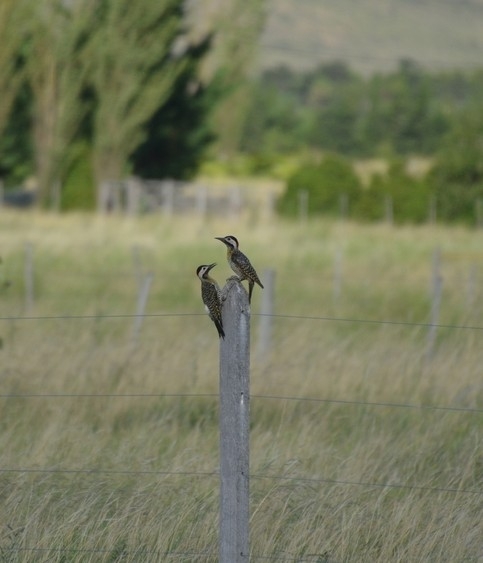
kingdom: Animalia
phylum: Chordata
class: Aves
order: Piciformes
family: Picidae
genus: Colaptes
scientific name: Colaptes melanochloros
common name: Green-barred woodpecker
